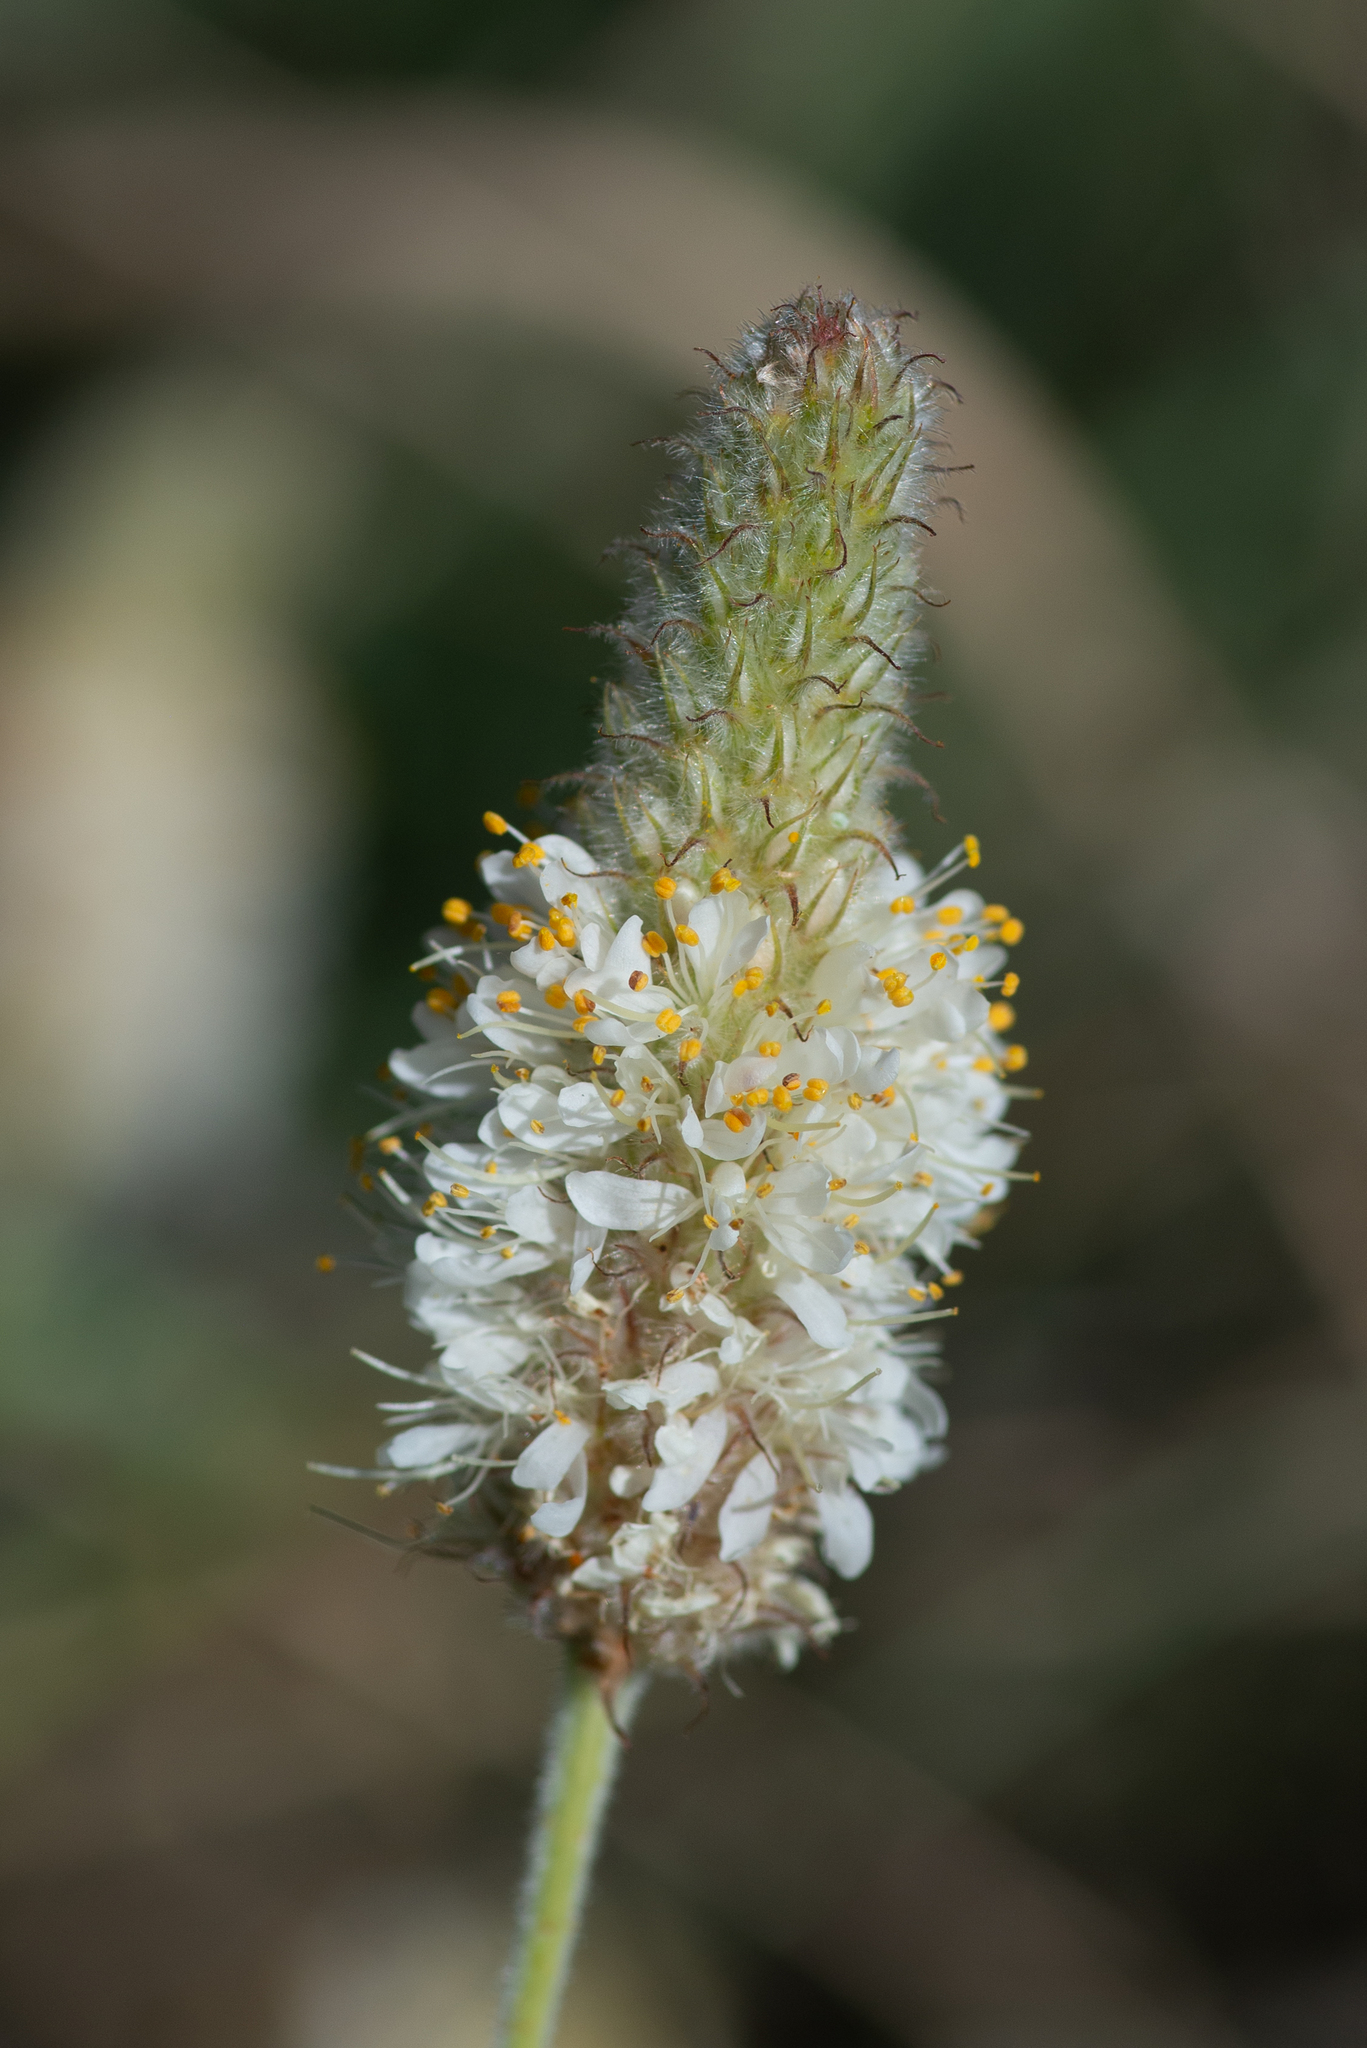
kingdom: Plantae
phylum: Tracheophyta
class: Magnoliopsida
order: Fabales
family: Fabaceae
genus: Dalea
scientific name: Dalea albiflora
